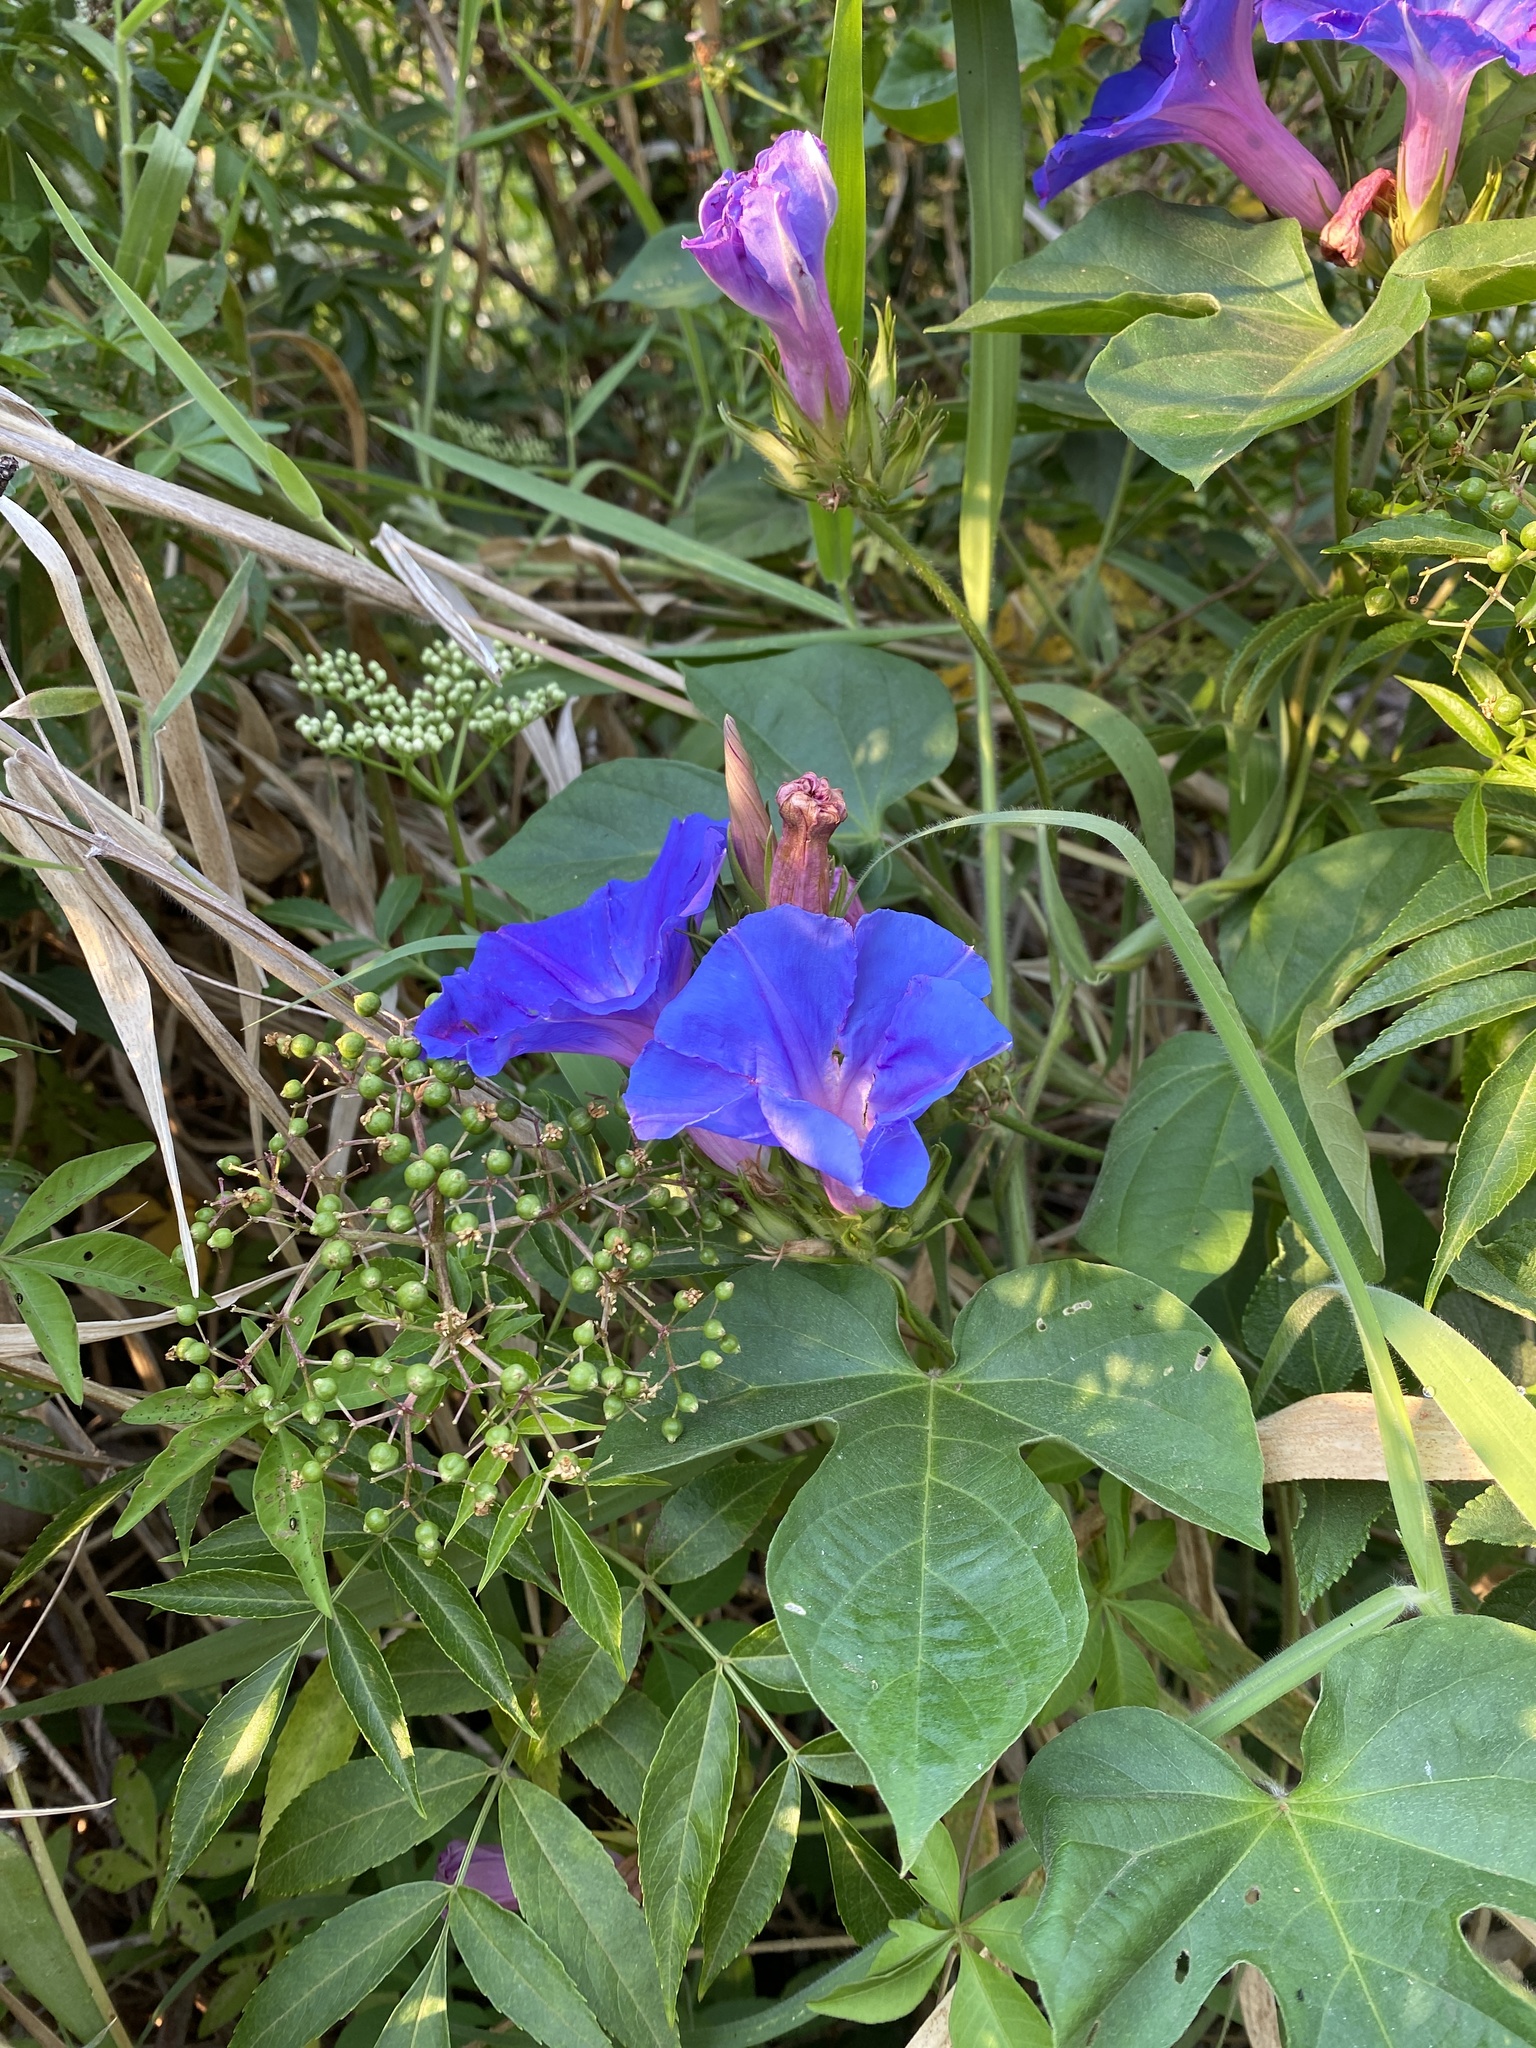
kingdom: Plantae
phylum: Tracheophyta
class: Magnoliopsida
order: Solanales
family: Convolvulaceae
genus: Ipomoea
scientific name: Ipomoea indica
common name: Blue dawnflower
